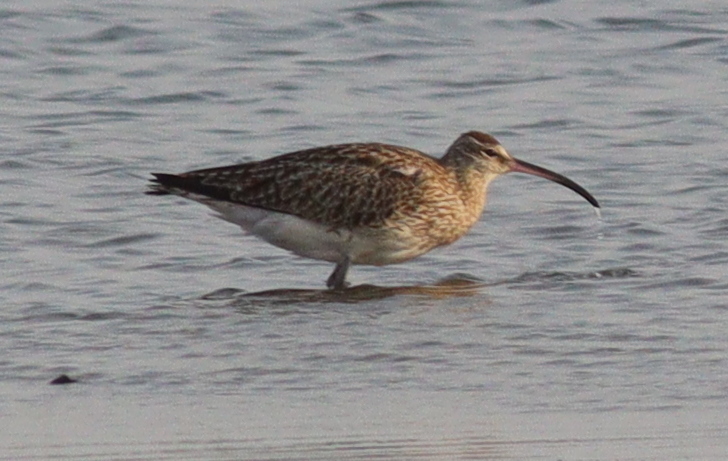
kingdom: Animalia
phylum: Chordata
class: Aves
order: Charadriiformes
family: Scolopacidae
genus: Numenius
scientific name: Numenius phaeopus
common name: Whimbrel
